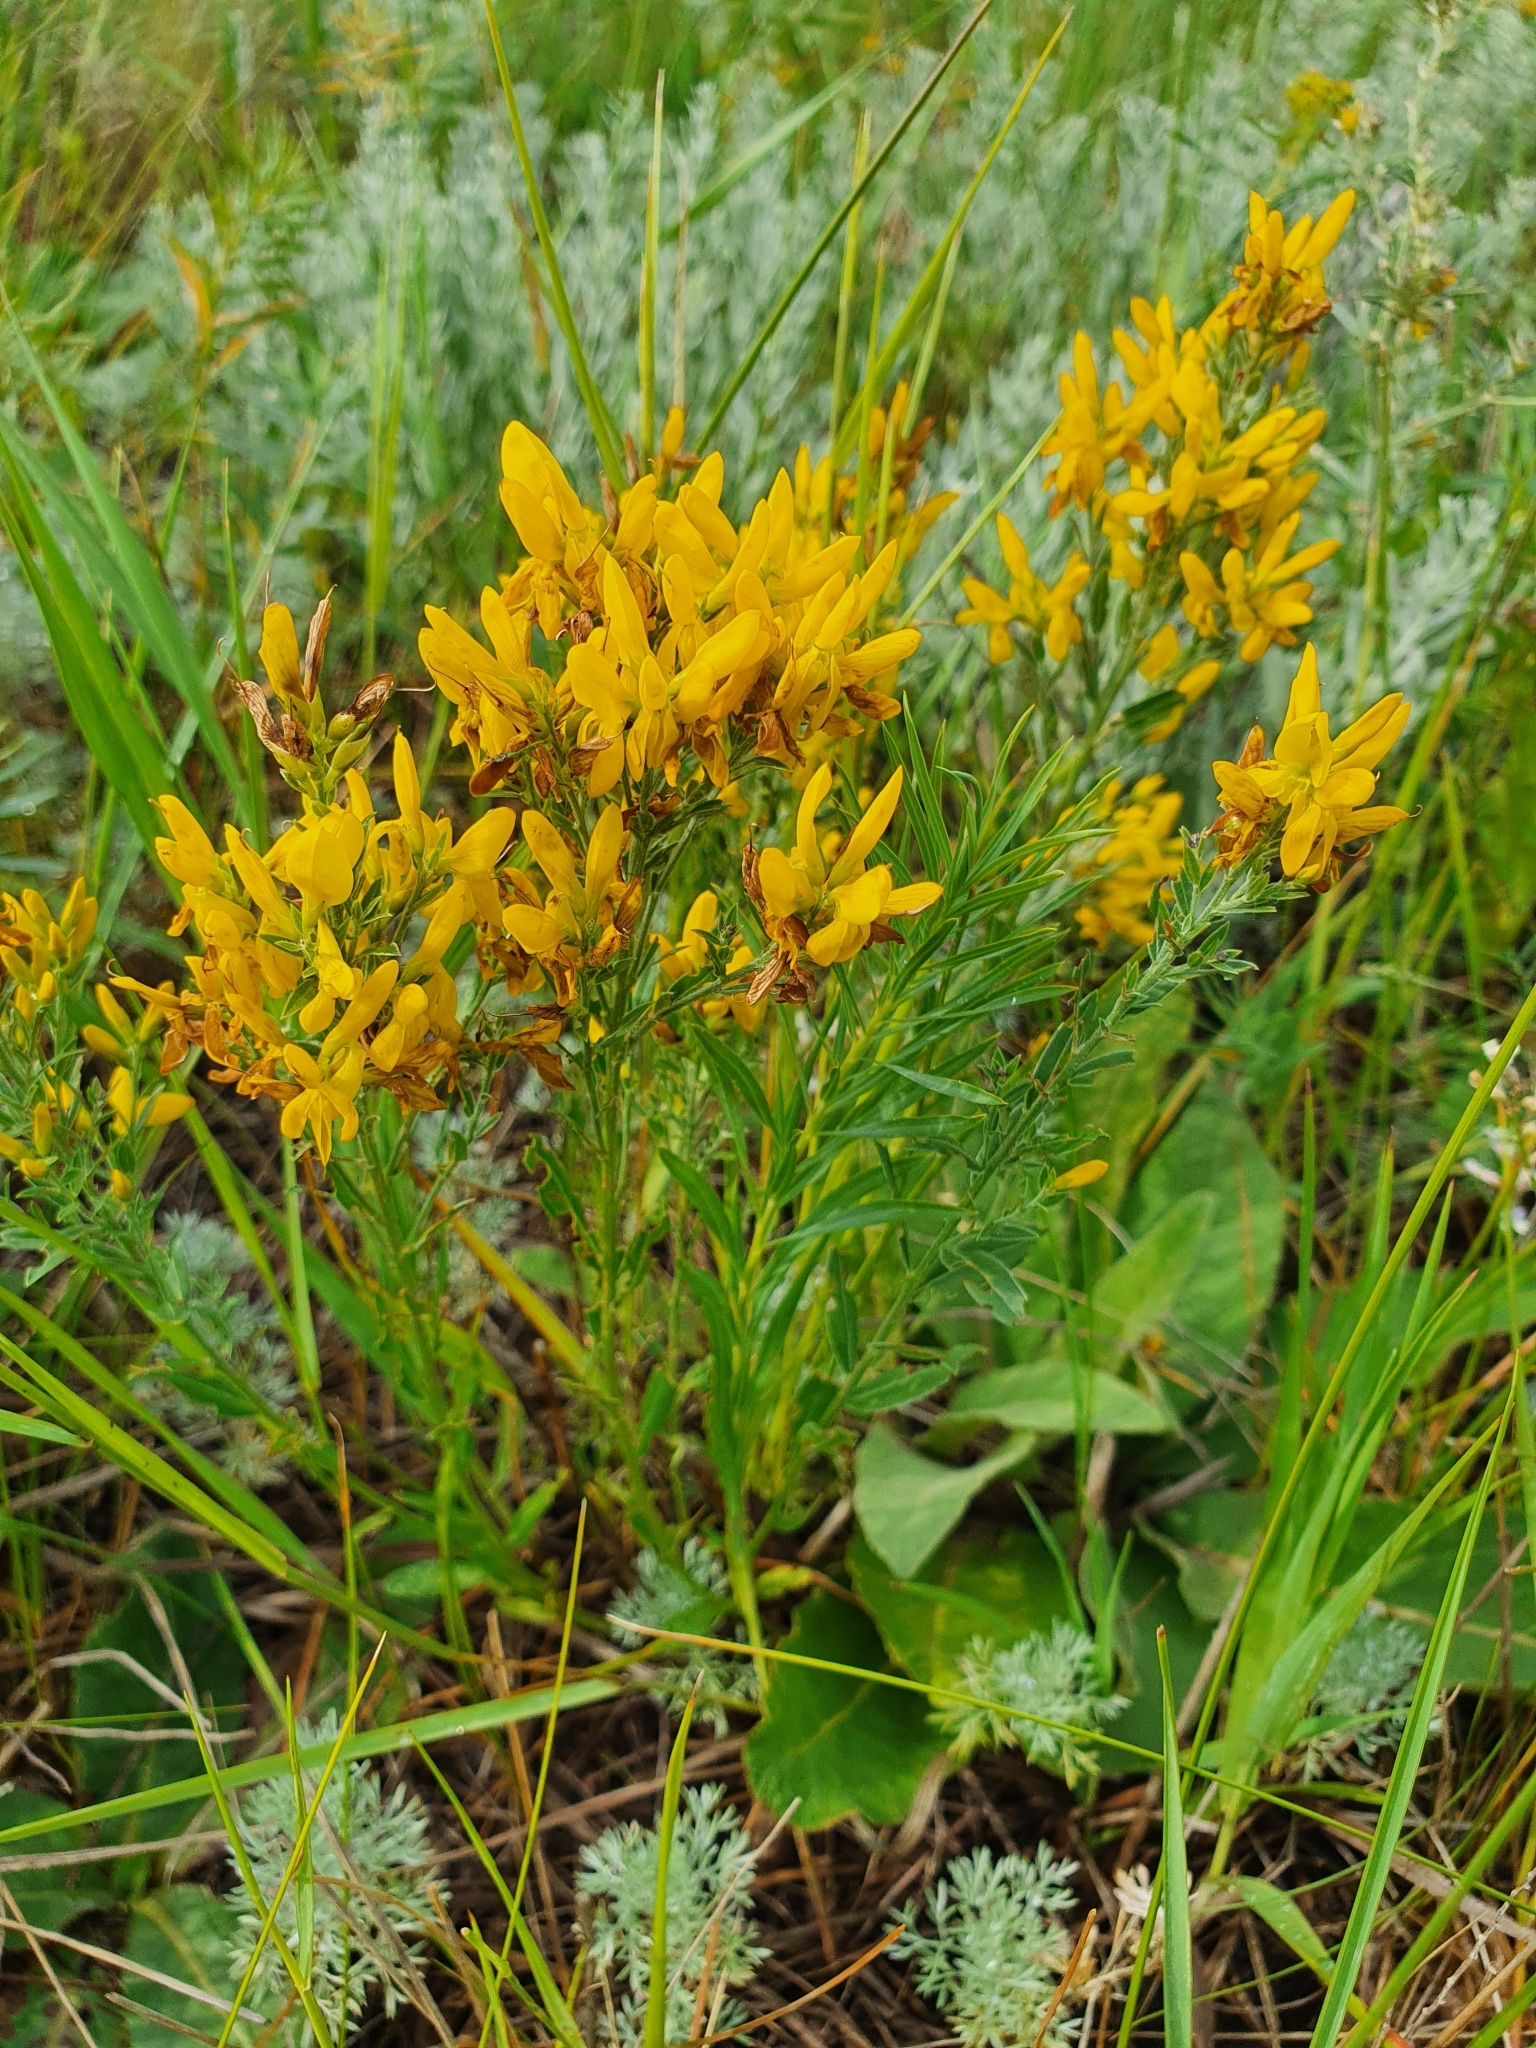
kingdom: Plantae
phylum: Tracheophyta
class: Magnoliopsida
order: Fabales
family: Fabaceae
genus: Genista
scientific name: Genista tinctoria
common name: Dyer's greenweed
